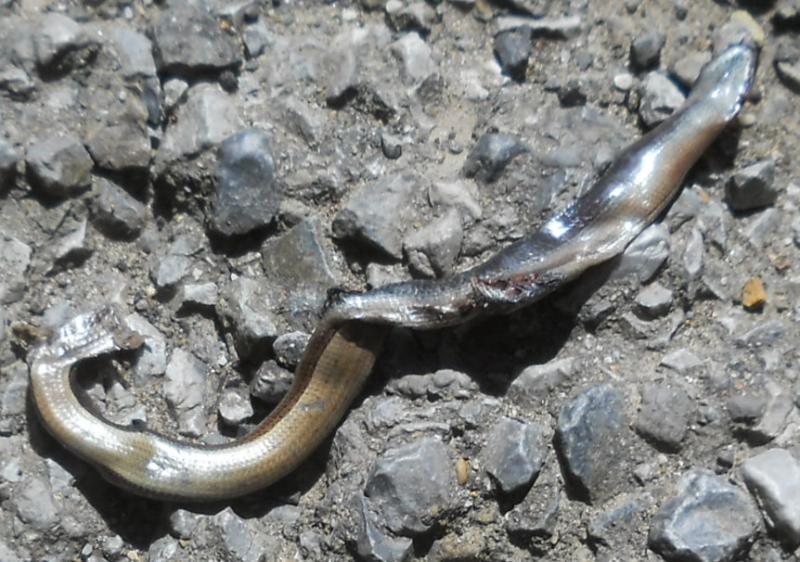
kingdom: Animalia
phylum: Chordata
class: Squamata
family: Anguidae
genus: Anguis
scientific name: Anguis colchica
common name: Slow worm
